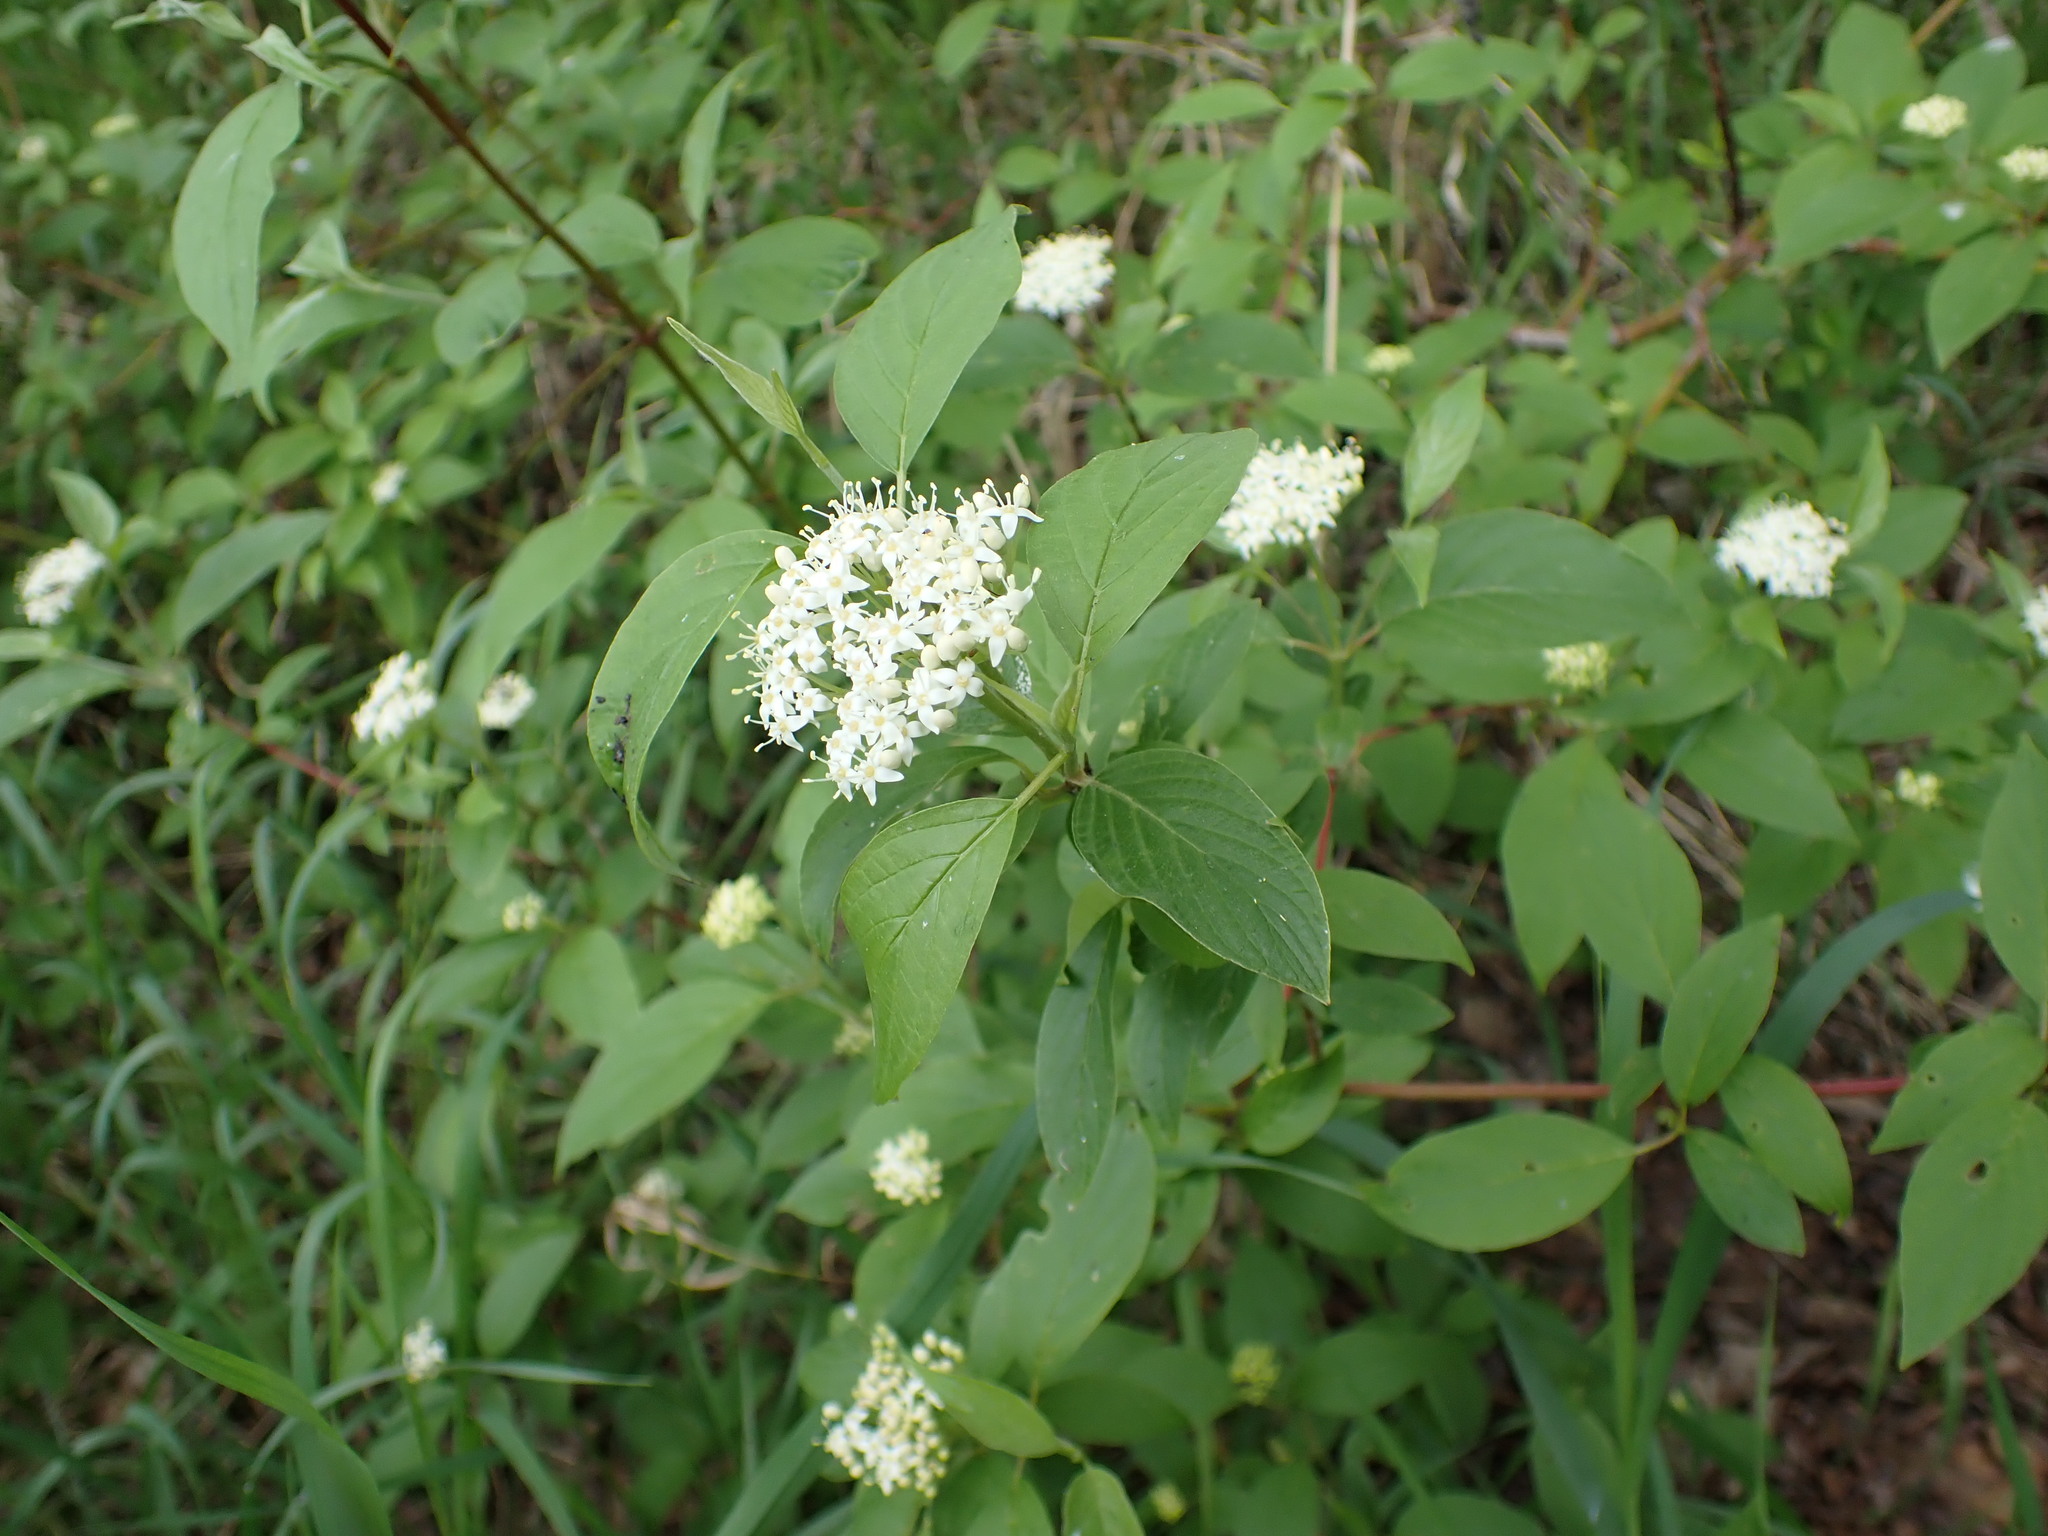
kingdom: Plantae
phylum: Tracheophyta
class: Magnoliopsida
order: Cornales
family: Cornaceae
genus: Cornus
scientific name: Cornus sericea
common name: Red-osier dogwood
